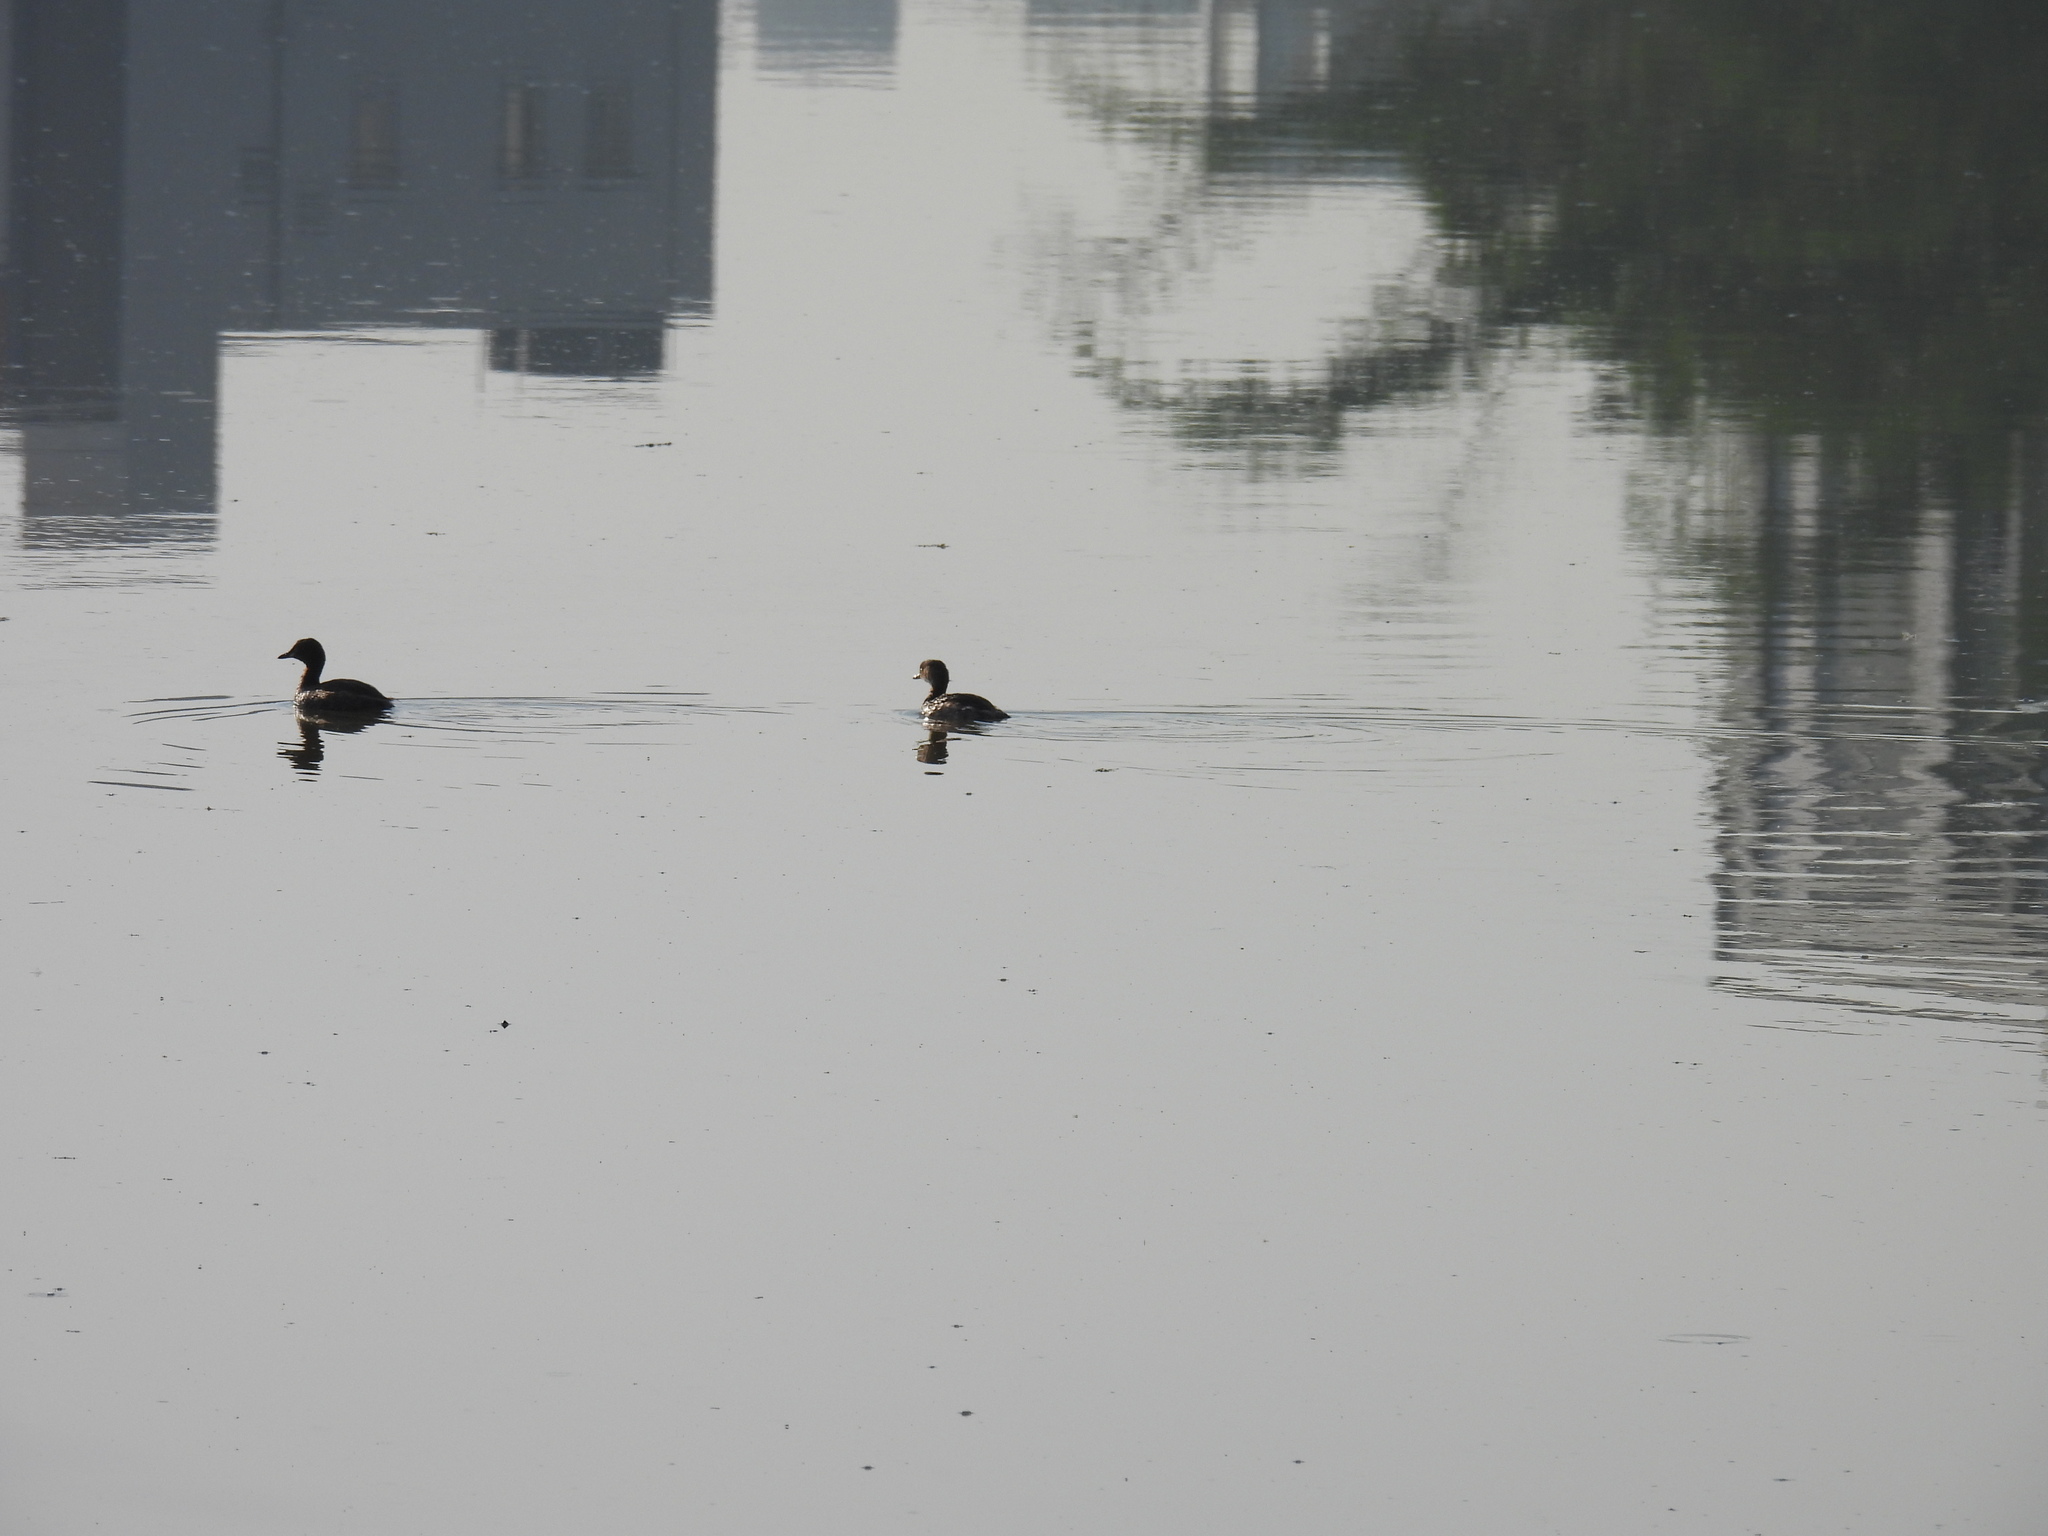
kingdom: Animalia
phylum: Chordata
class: Aves
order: Podicipediformes
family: Podicipedidae
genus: Tachybaptus
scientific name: Tachybaptus ruficollis
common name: Little grebe
